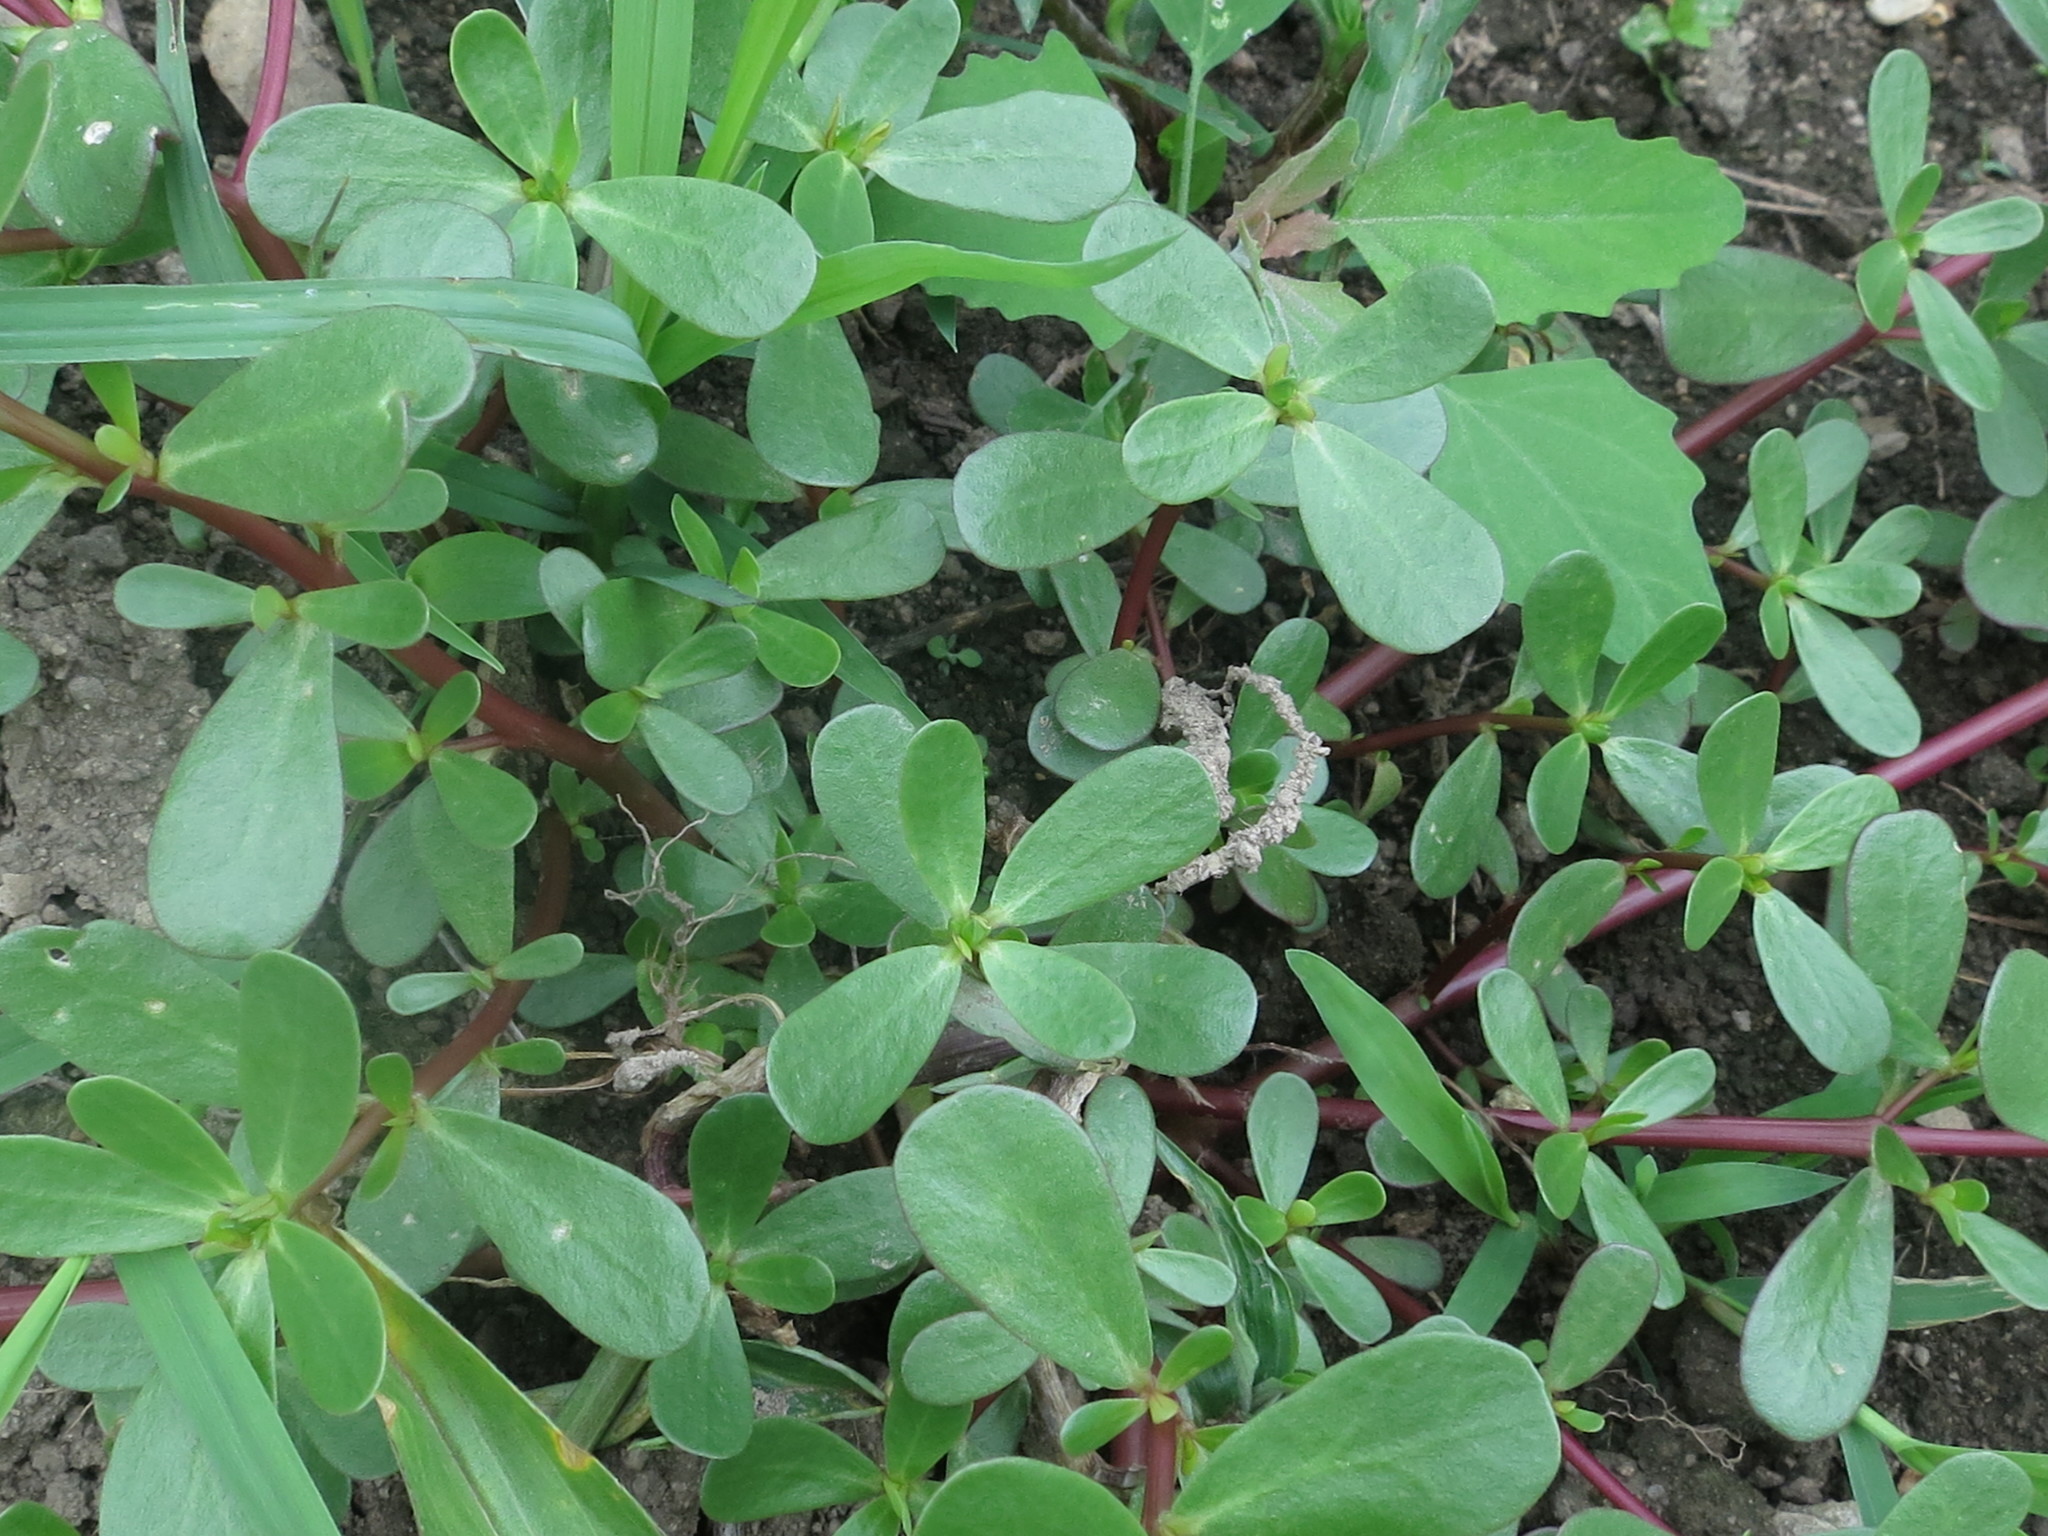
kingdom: Plantae
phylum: Tracheophyta
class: Magnoliopsida
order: Caryophyllales
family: Portulacaceae
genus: Portulaca
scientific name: Portulaca oleracea
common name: Common purslane
